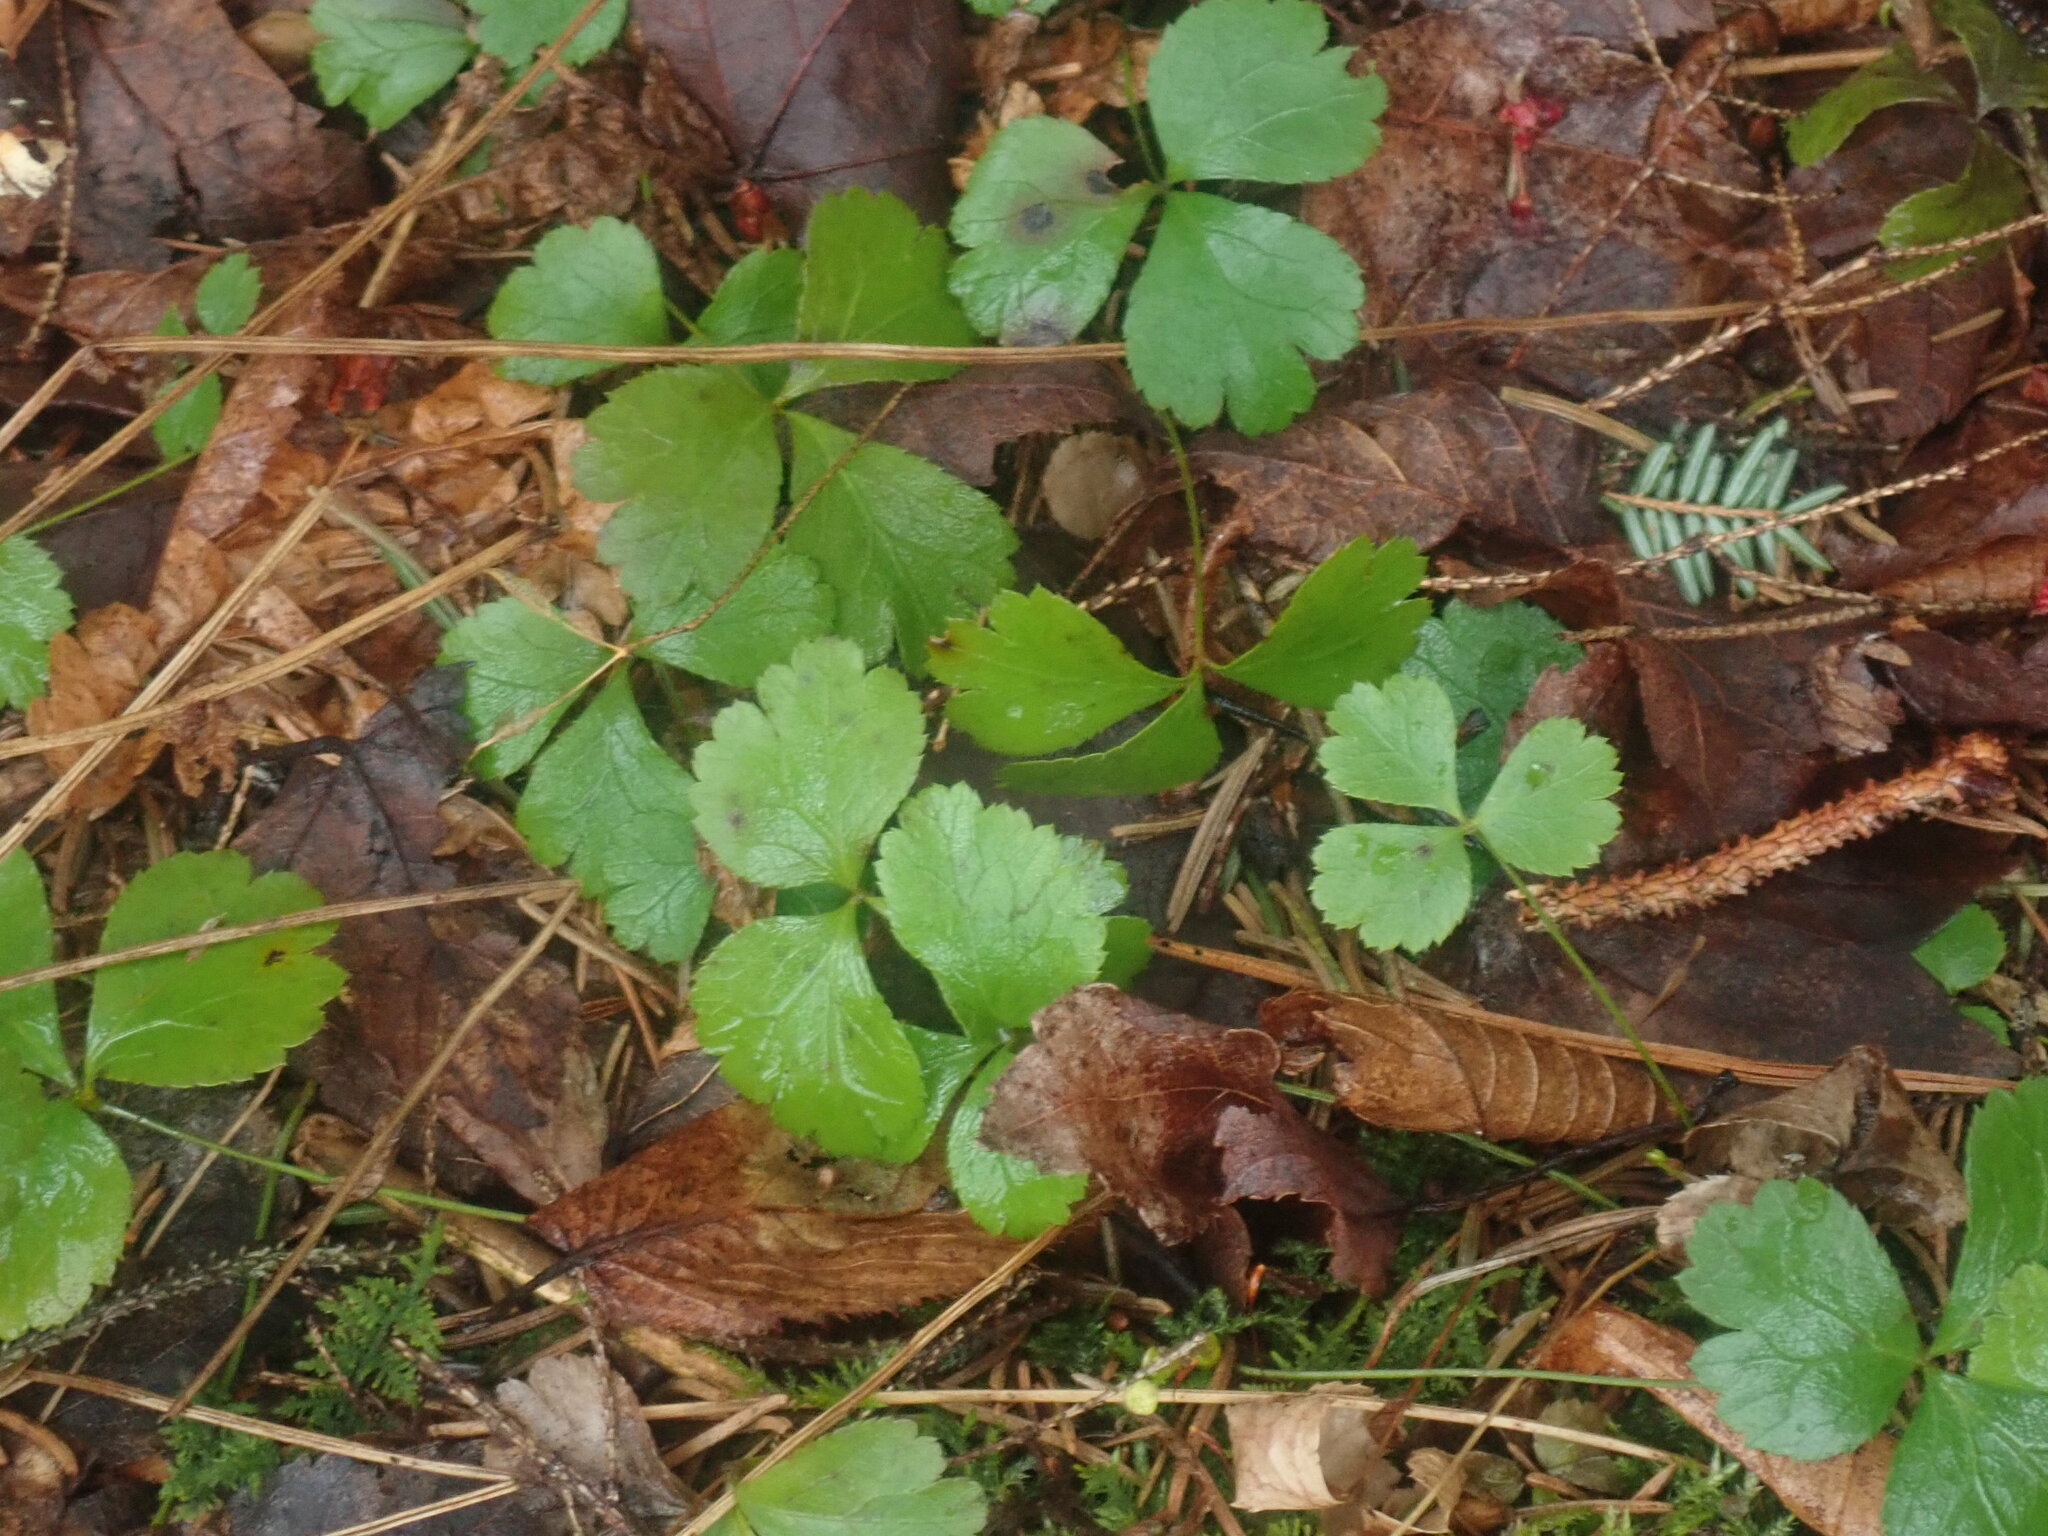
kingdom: Plantae
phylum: Tracheophyta
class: Magnoliopsida
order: Ranunculales
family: Ranunculaceae
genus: Coptis
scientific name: Coptis trifolia
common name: Canker-root
